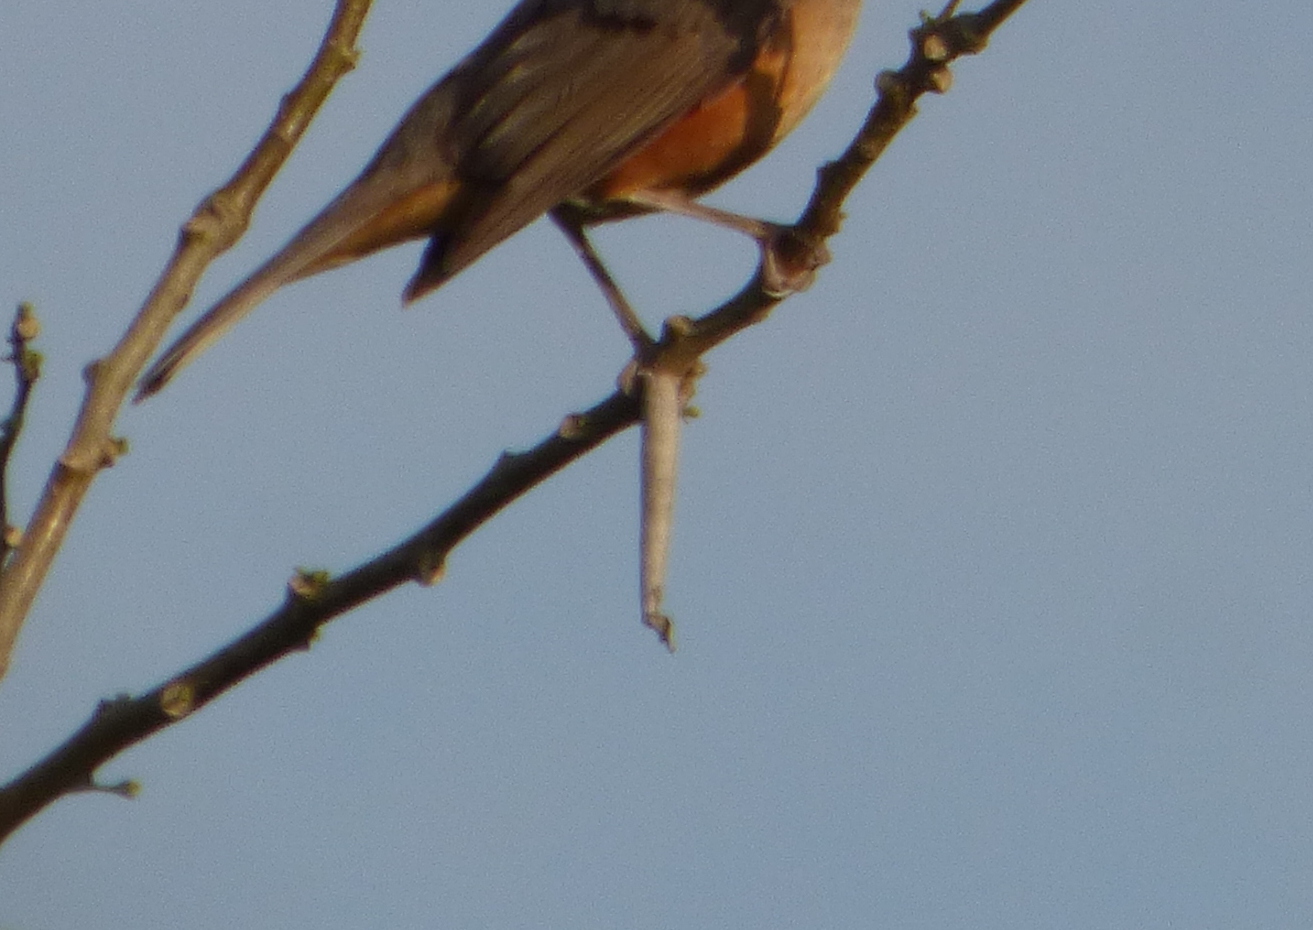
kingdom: Animalia
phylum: Arthropoda
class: Insecta
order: Lepidoptera
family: Psychidae
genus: Oiketicus
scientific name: Oiketicus geyeri
